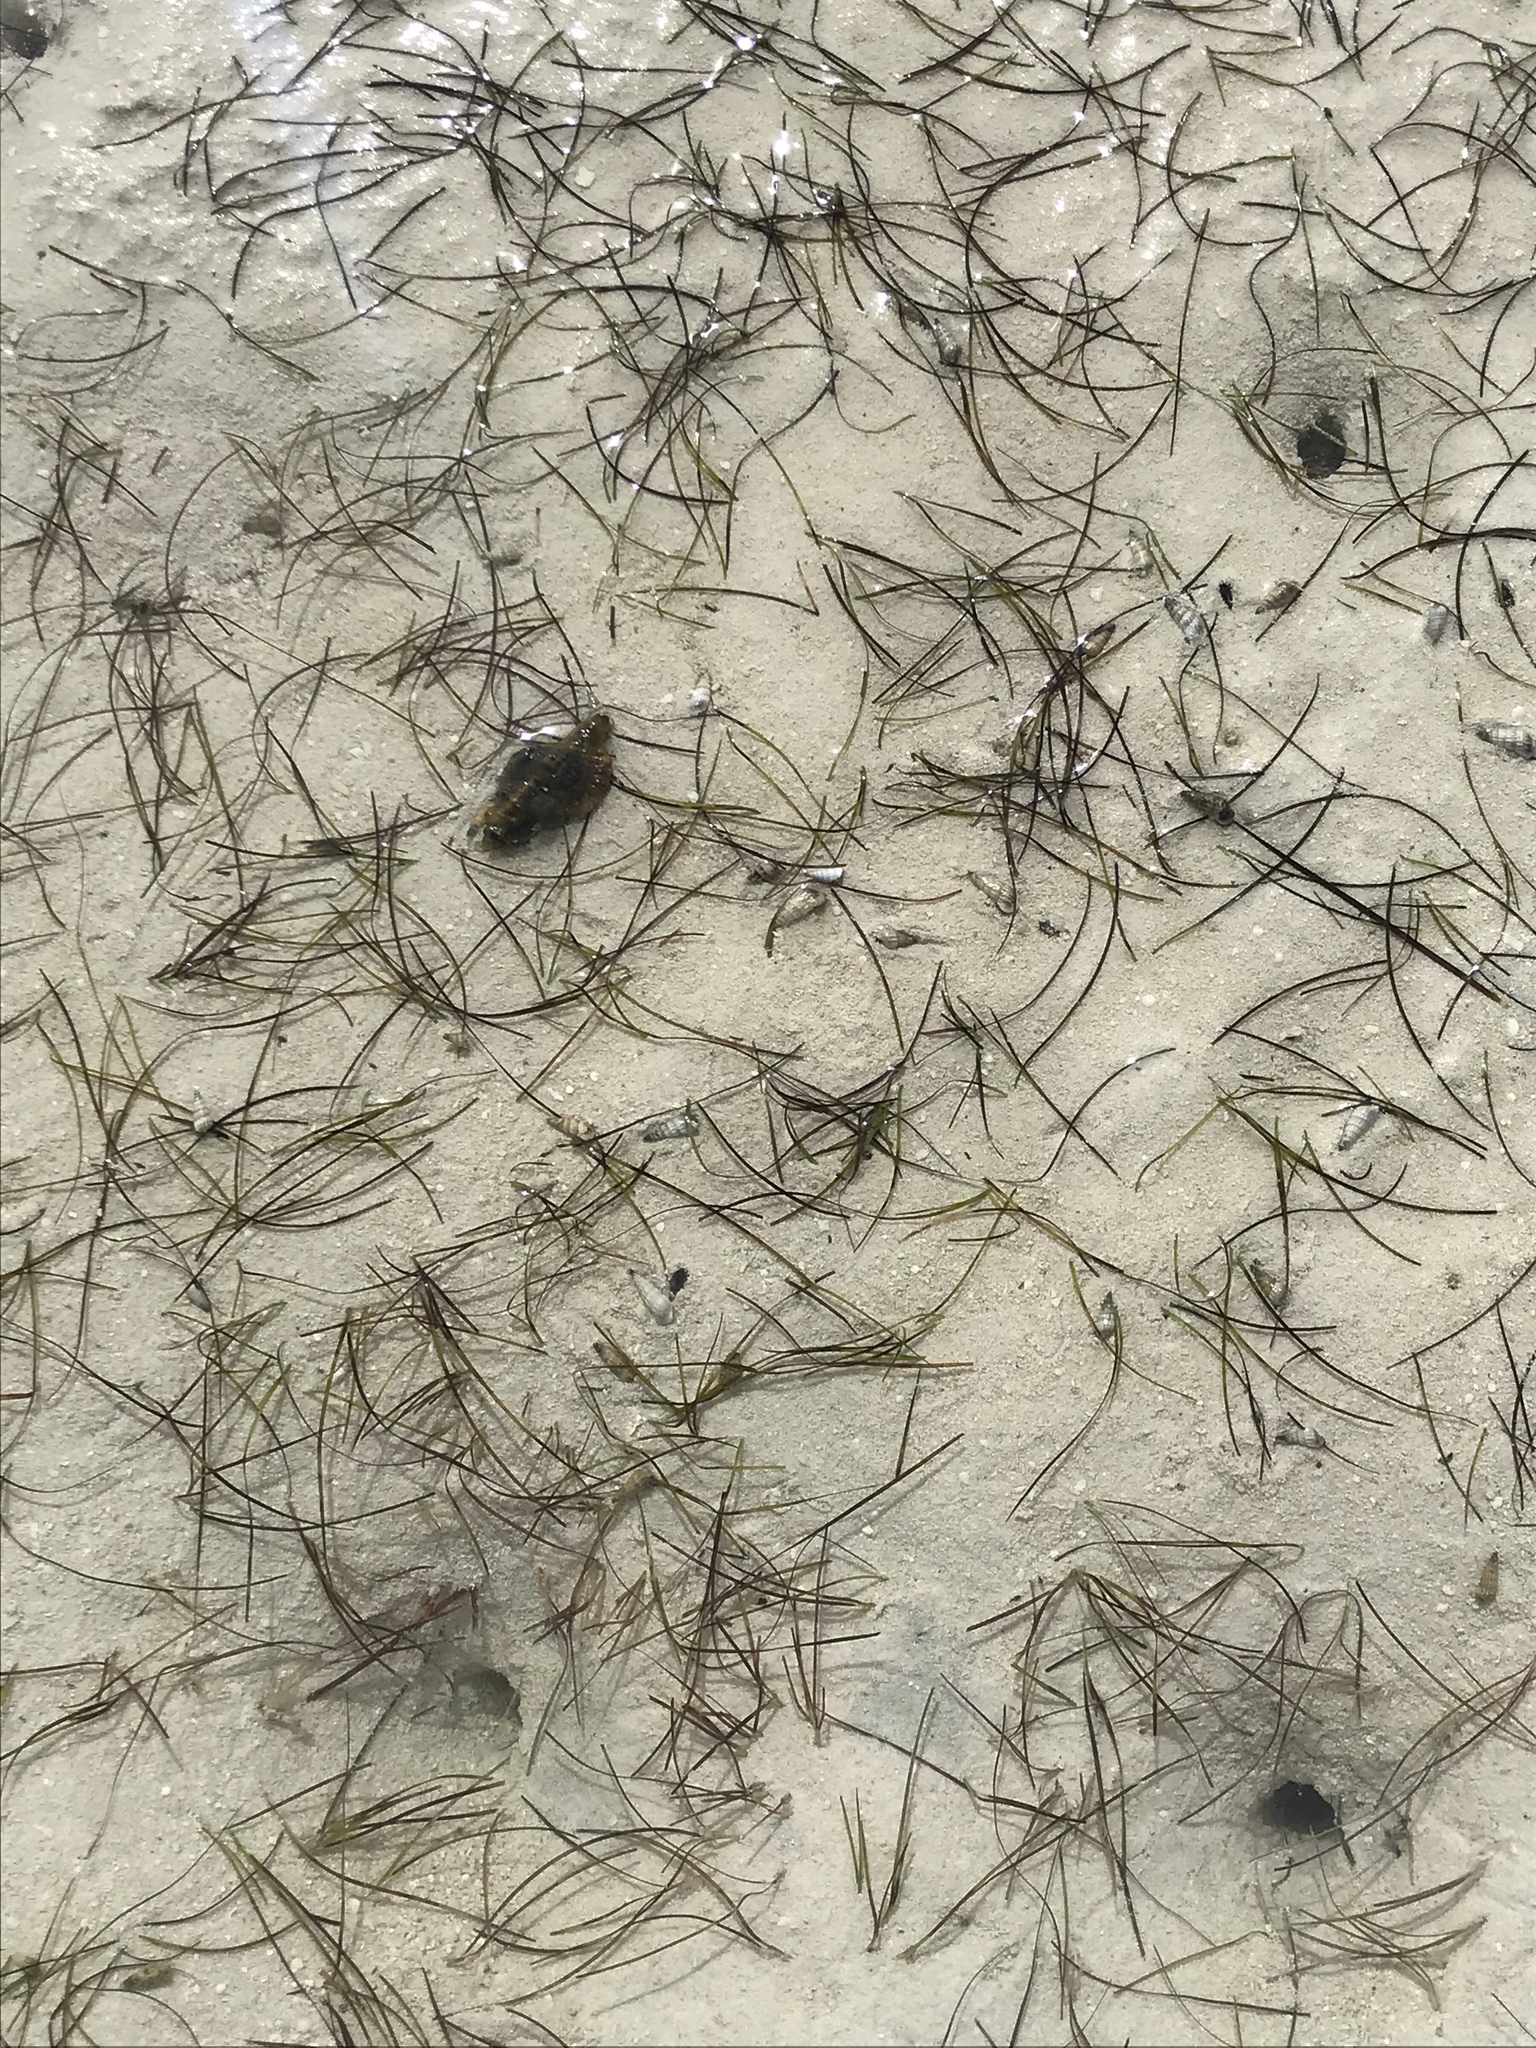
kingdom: Plantae
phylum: Tracheophyta
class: Liliopsida
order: Alismatales
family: Cymodoceaceae
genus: Syringodium
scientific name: Syringodium filiforme
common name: Manatee grass
